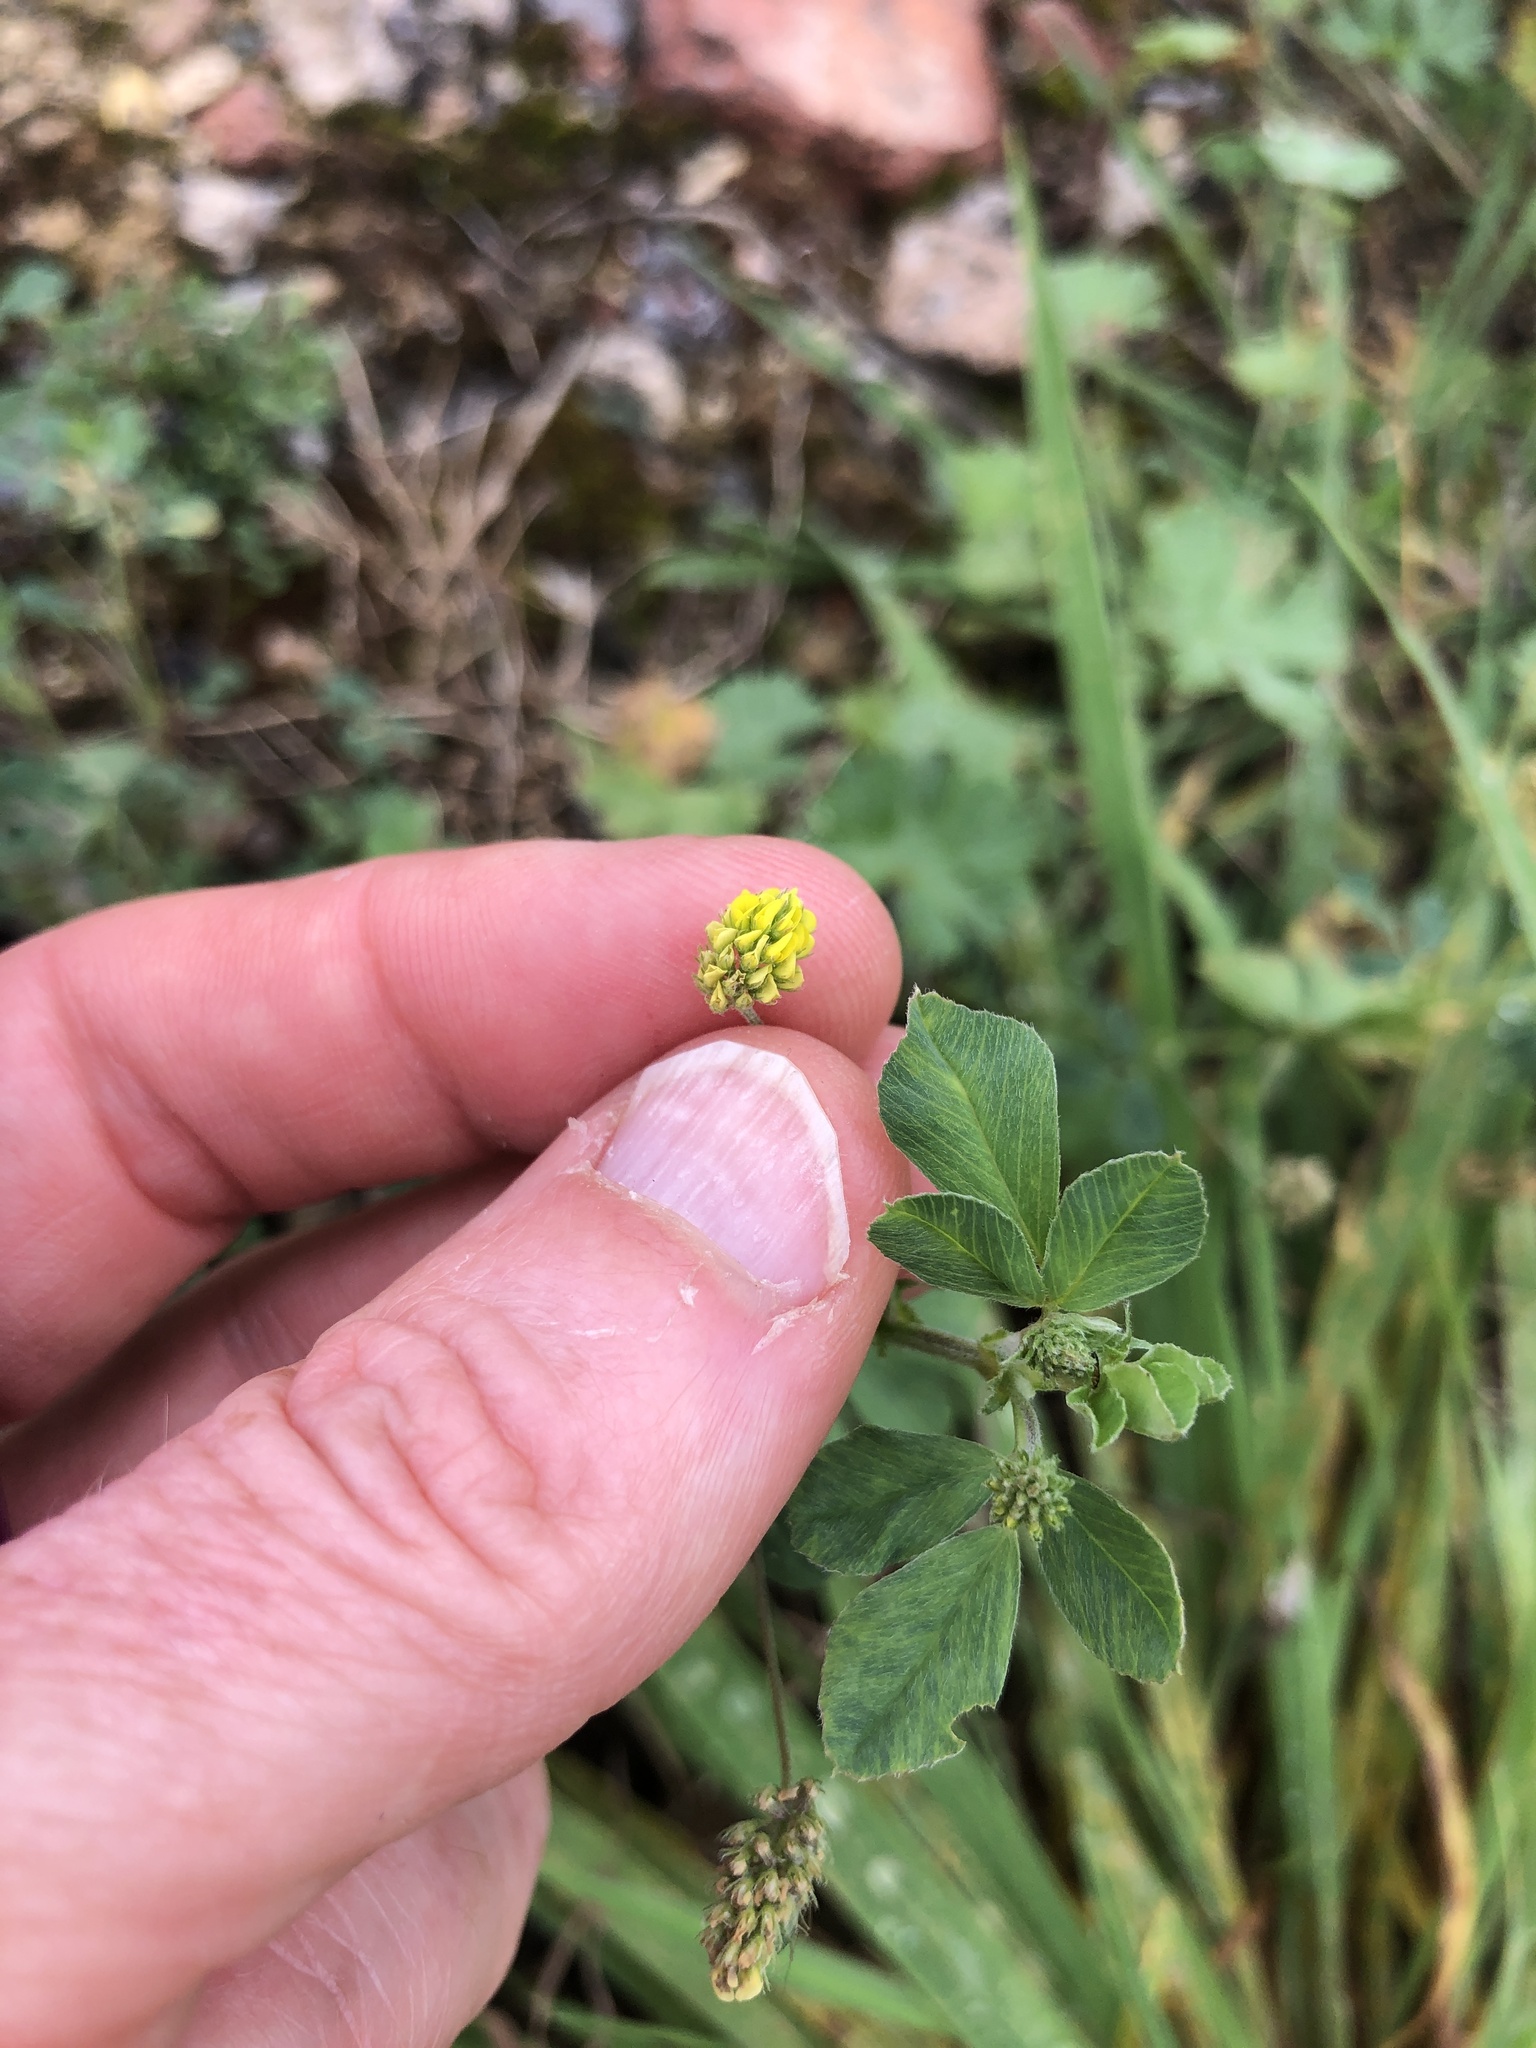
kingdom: Plantae
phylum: Tracheophyta
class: Magnoliopsida
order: Fabales
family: Fabaceae
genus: Medicago
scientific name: Medicago lupulina
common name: Black medick
